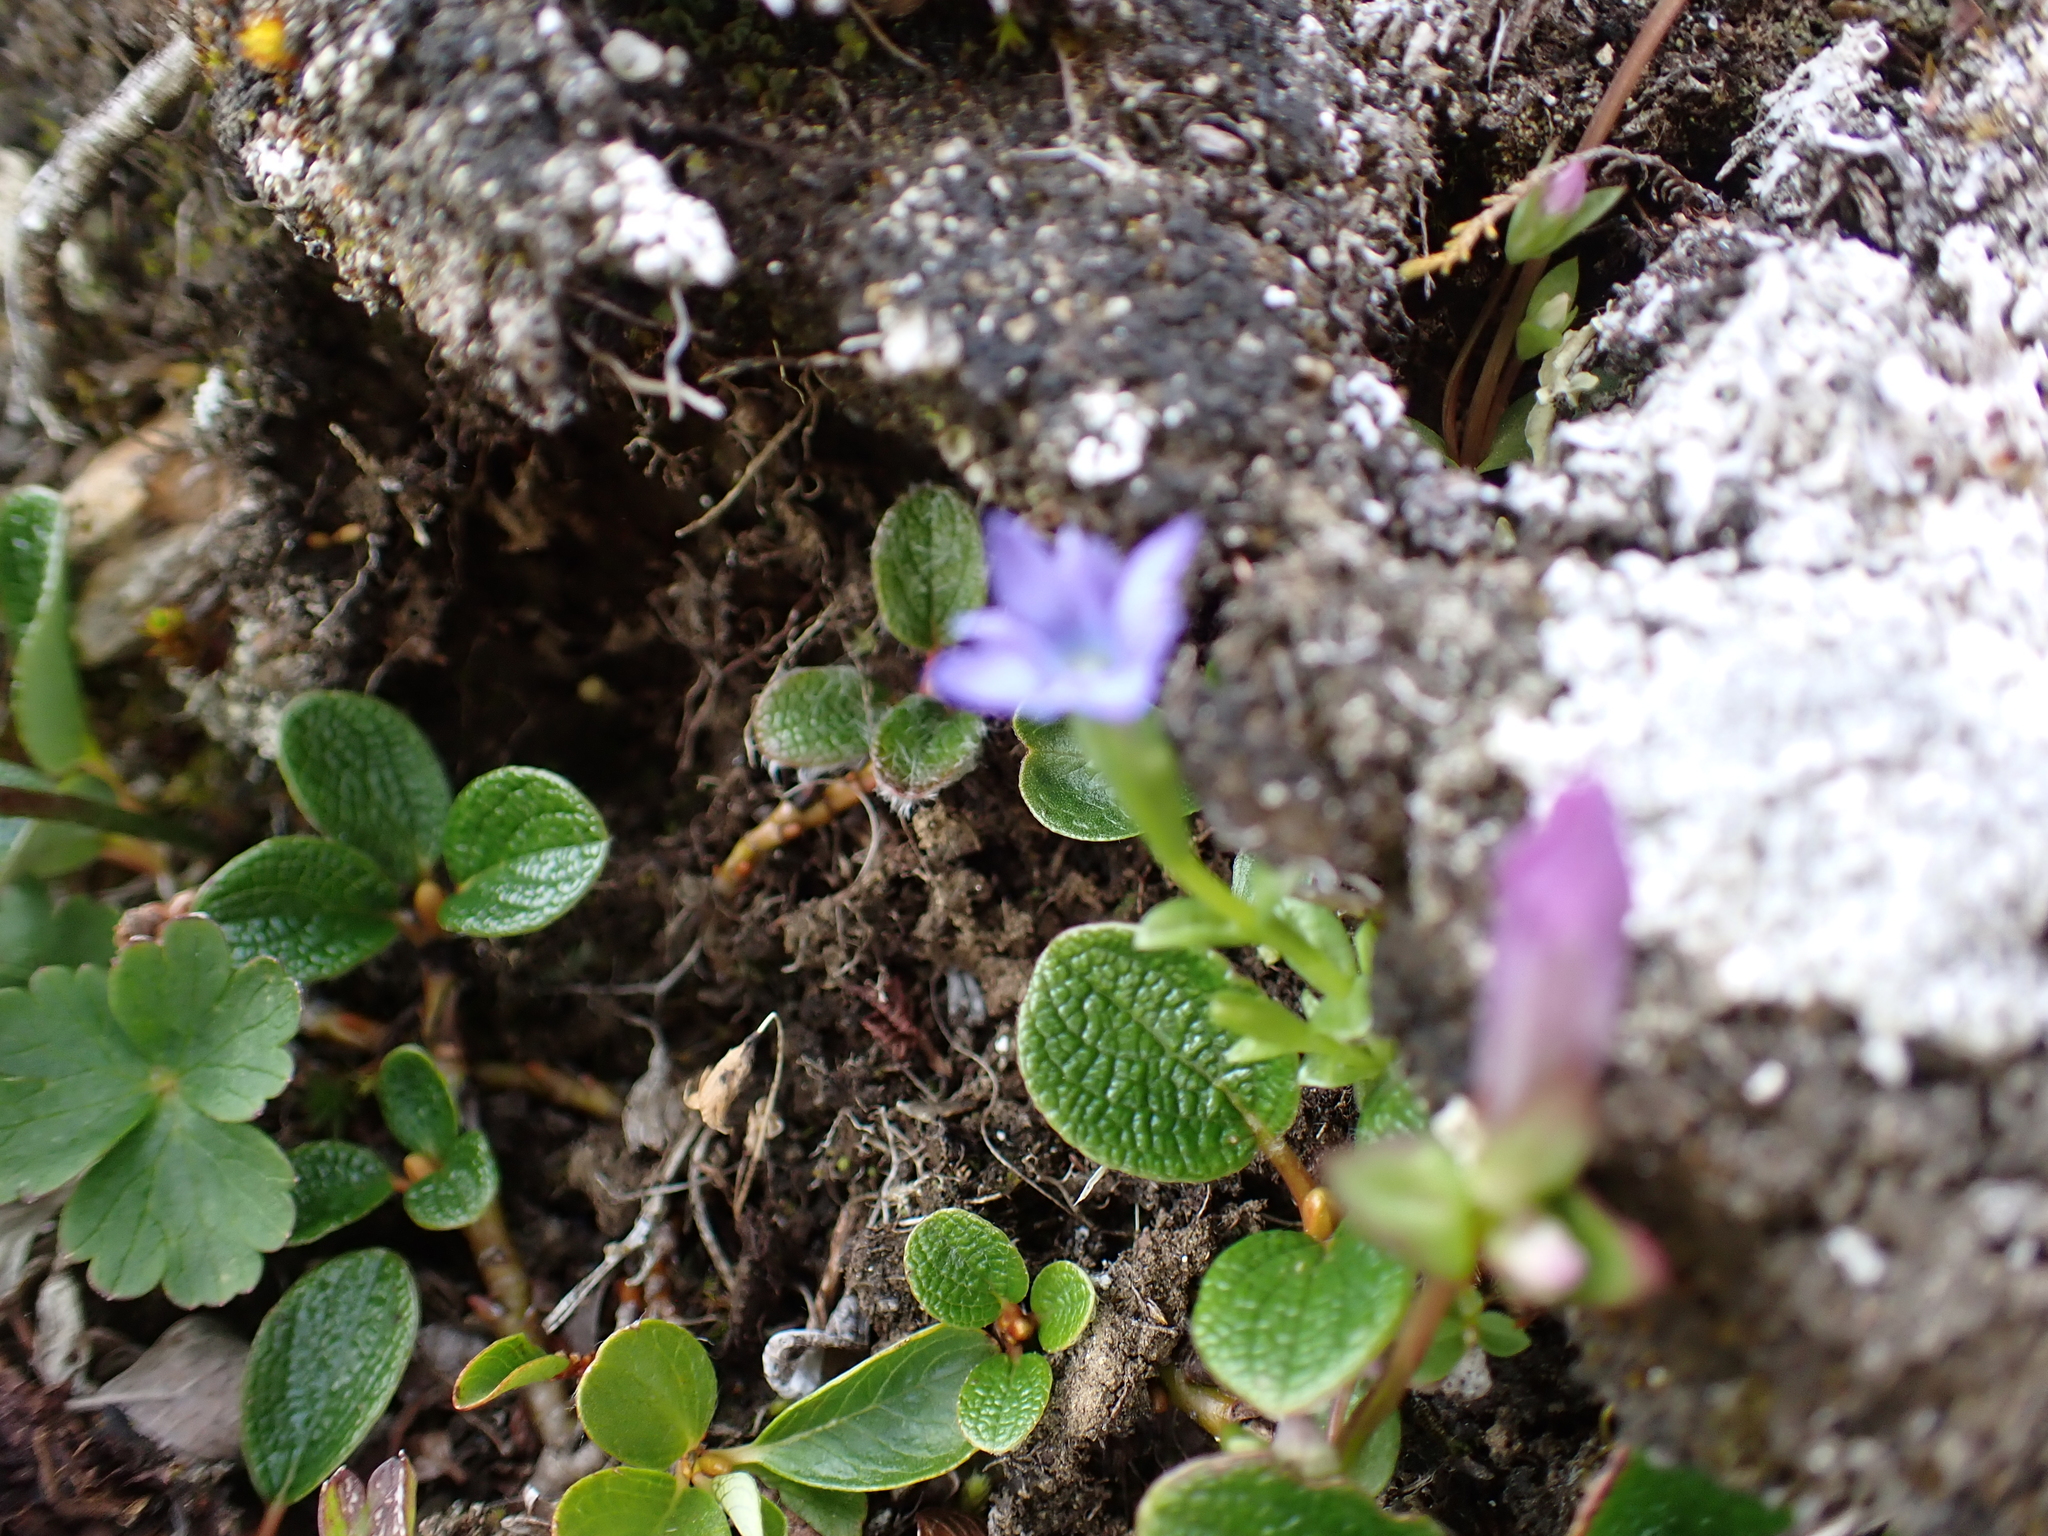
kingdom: Plantae
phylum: Tracheophyta
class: Magnoliopsida
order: Gentianales
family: Gentianaceae
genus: Gentiana
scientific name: Gentiana prostrata
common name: Moss gentian
